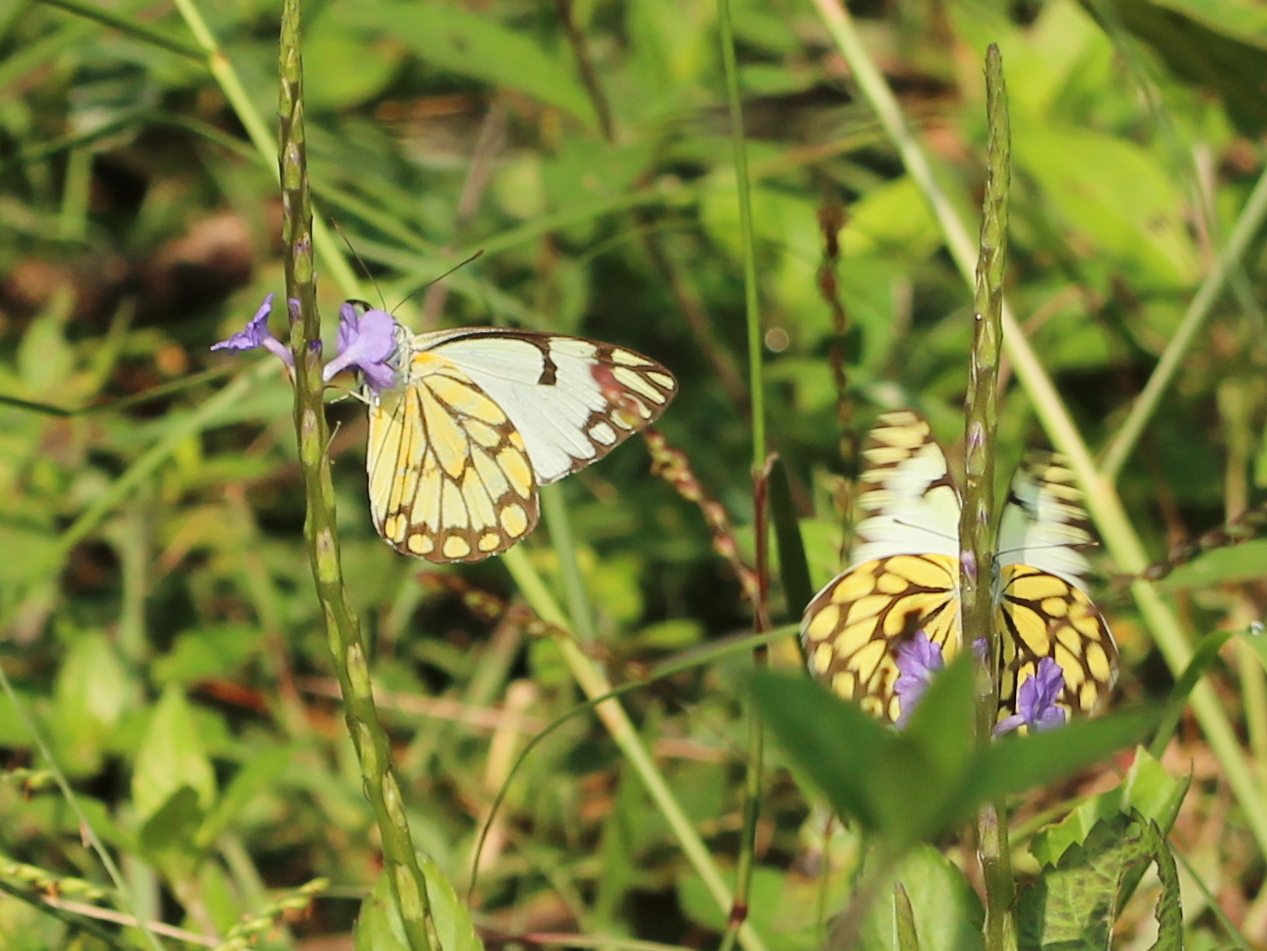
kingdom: Animalia
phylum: Arthropoda
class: Insecta
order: Lepidoptera
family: Pieridae
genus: Belenois
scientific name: Belenois aurota
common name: Brown-veined white
